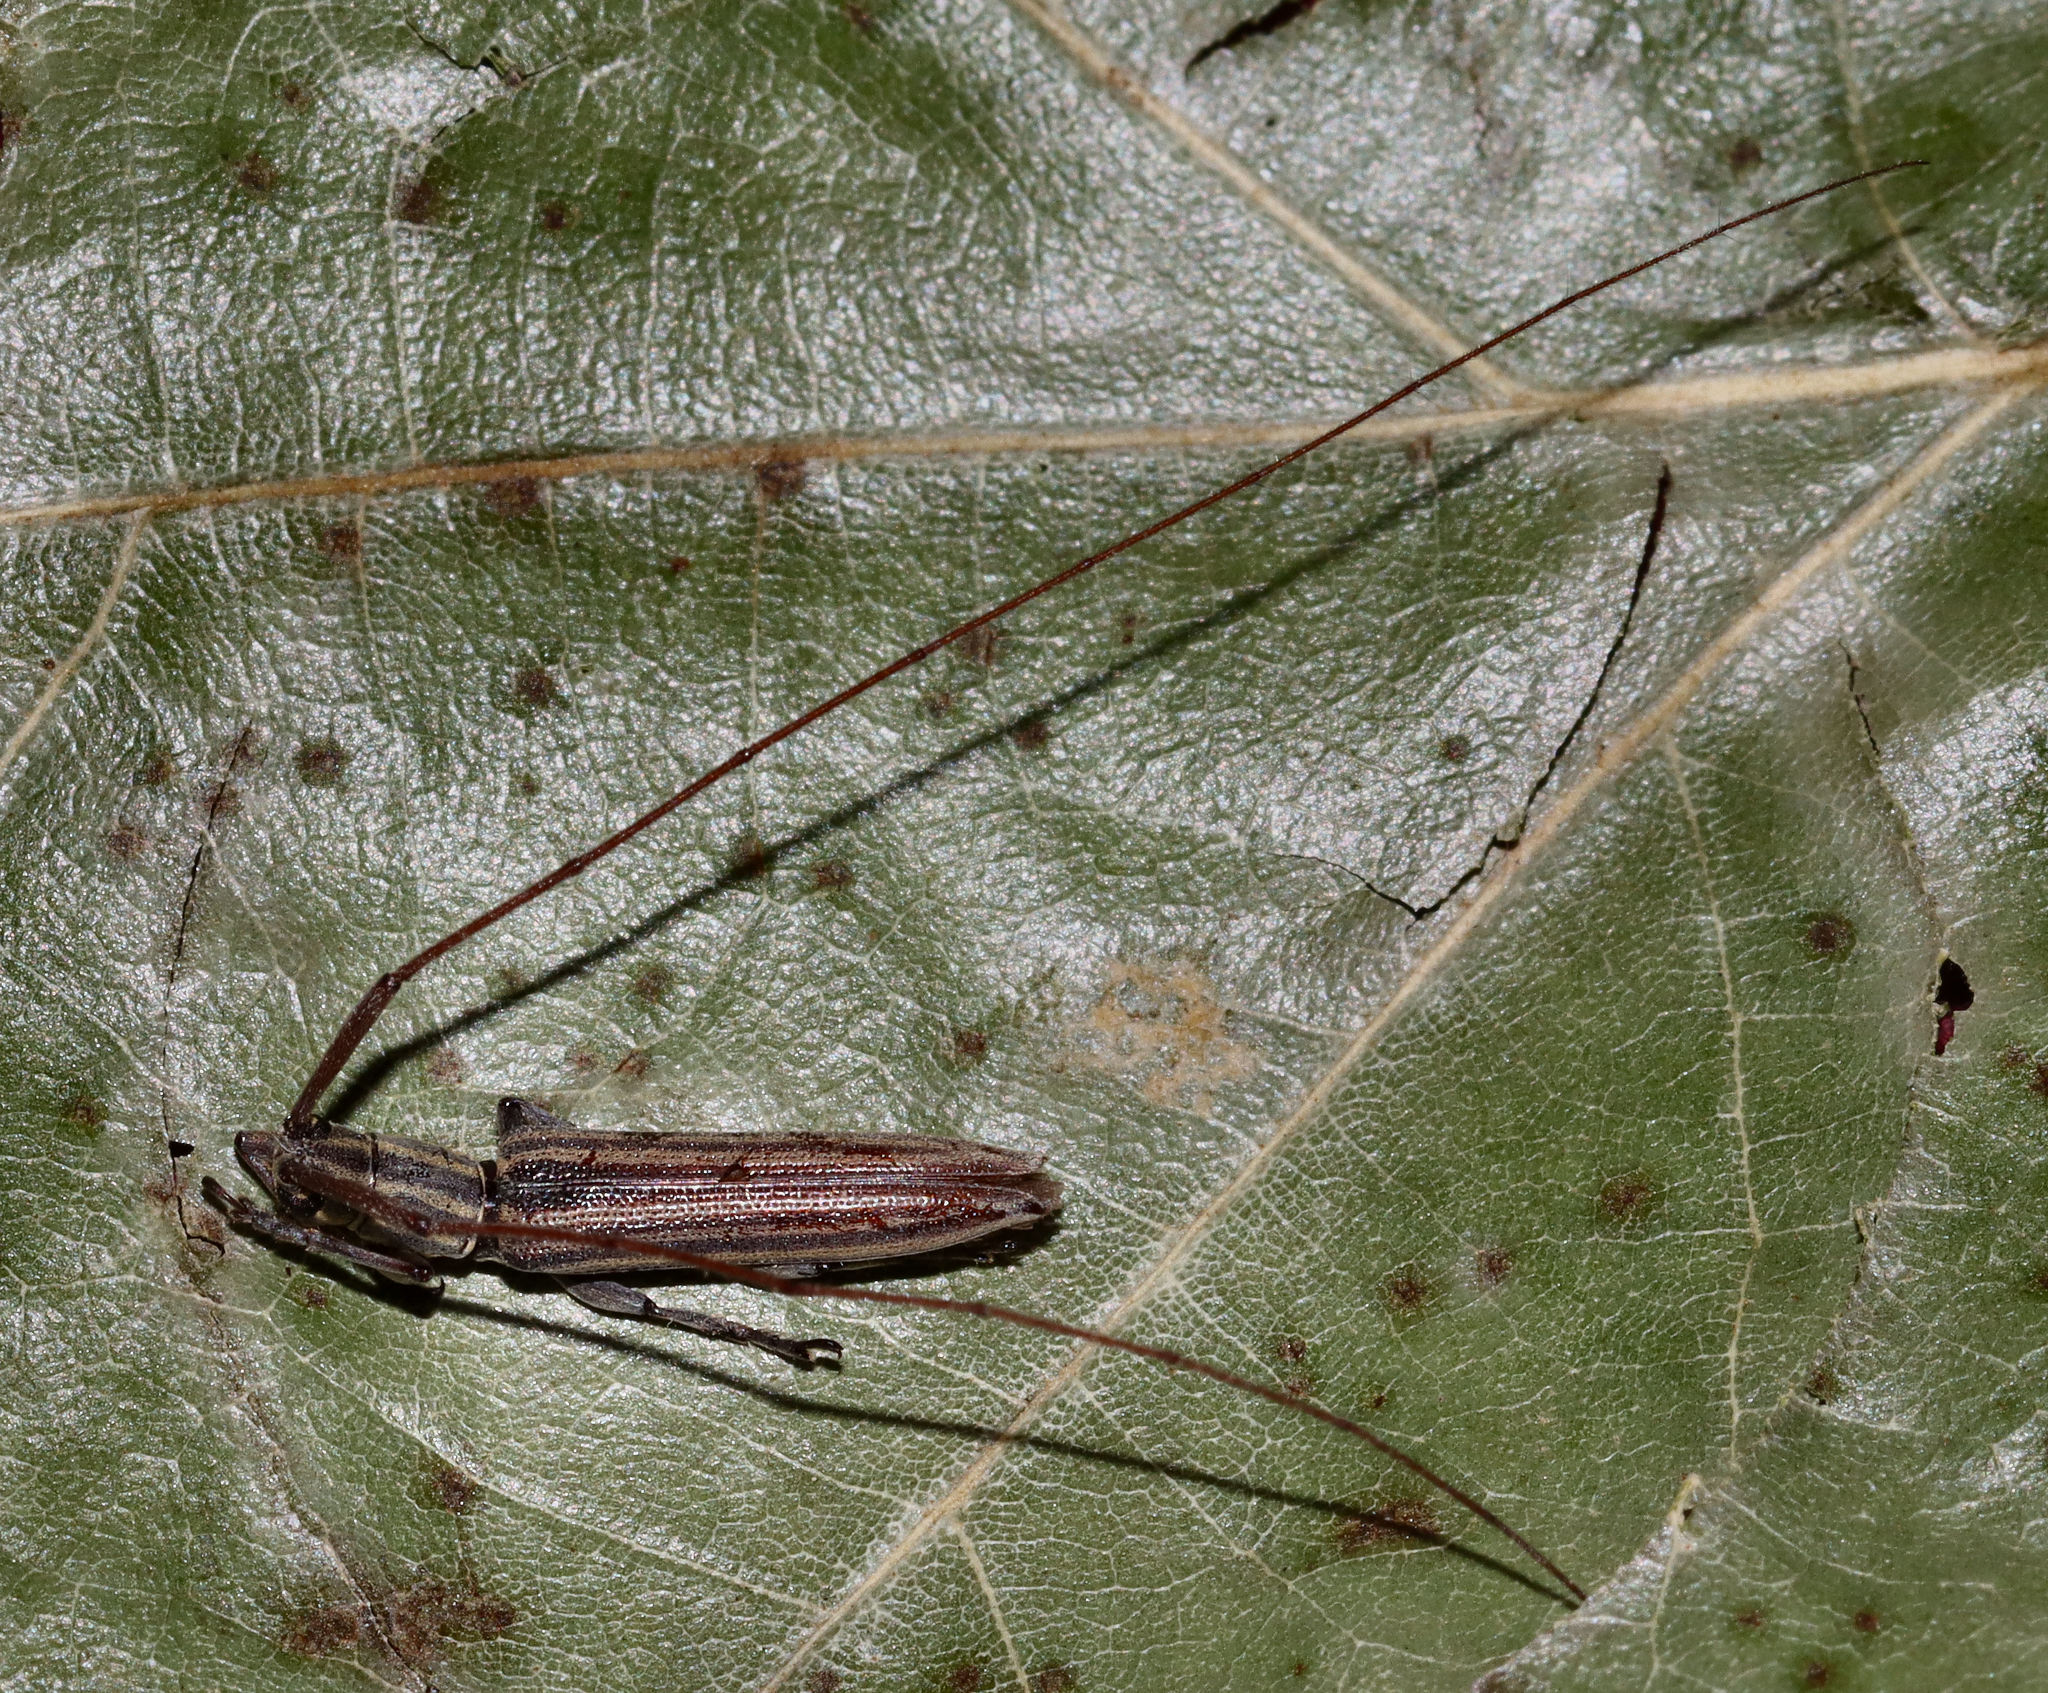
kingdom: Animalia
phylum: Arthropoda
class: Insecta
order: Coleoptera
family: Cerambycidae
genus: Hippopsis
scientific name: Hippopsis
